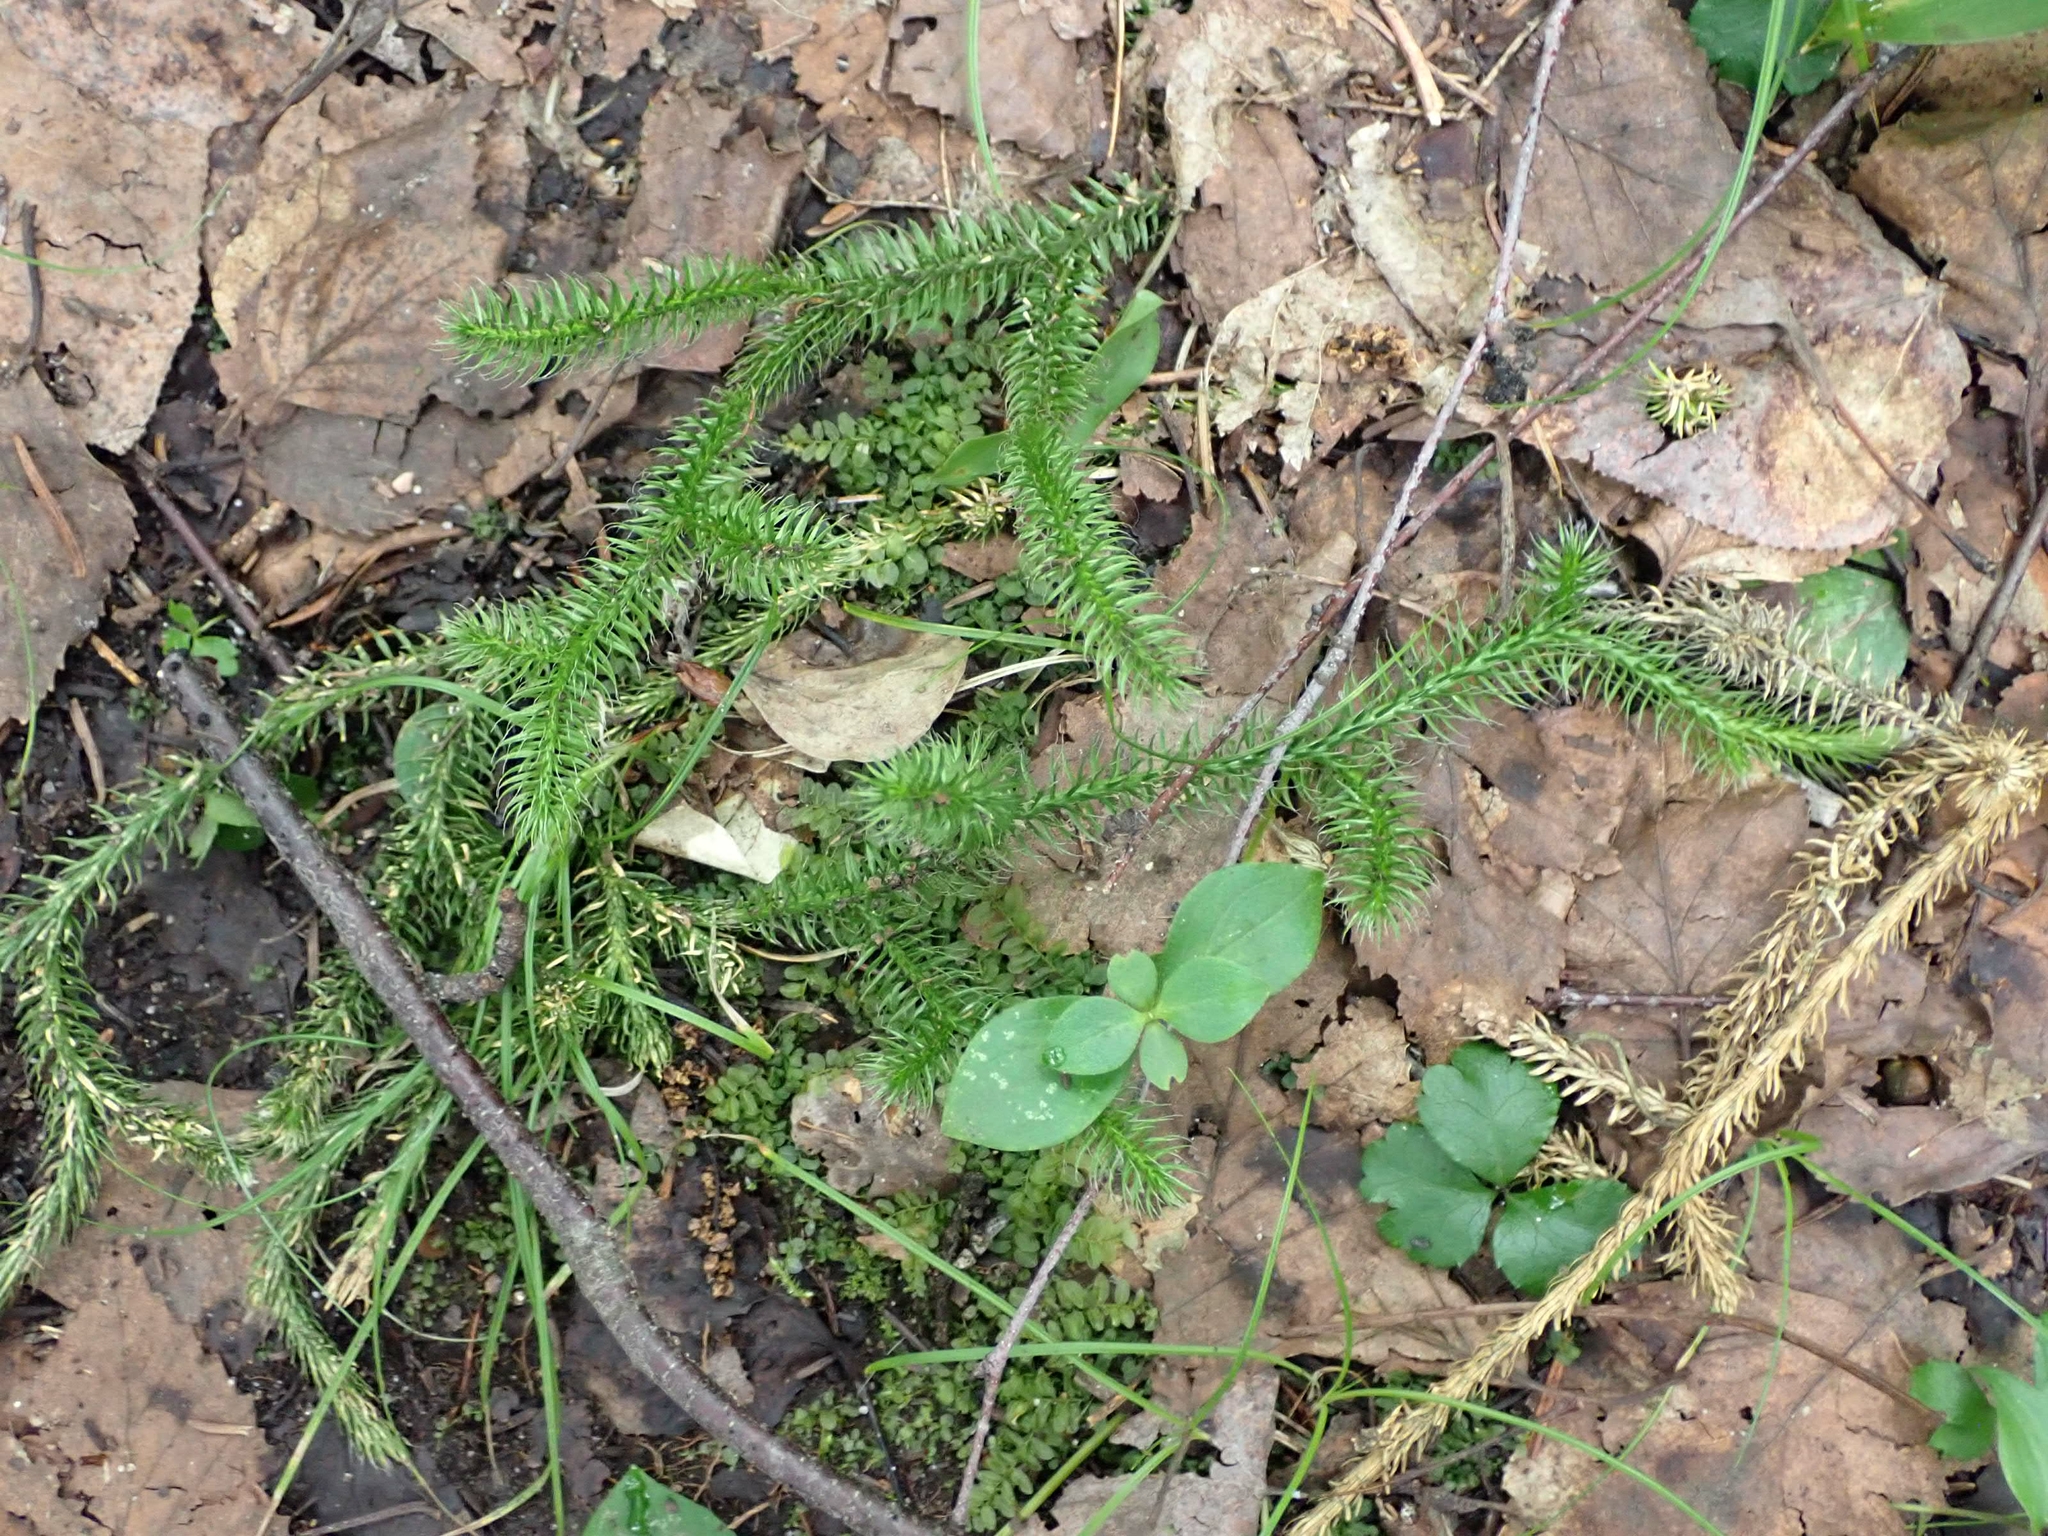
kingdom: Plantae
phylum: Tracheophyta
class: Lycopodiopsida
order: Lycopodiales
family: Lycopodiaceae
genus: Lycopodium
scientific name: Lycopodium clavatum
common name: Stag's-horn clubmoss
